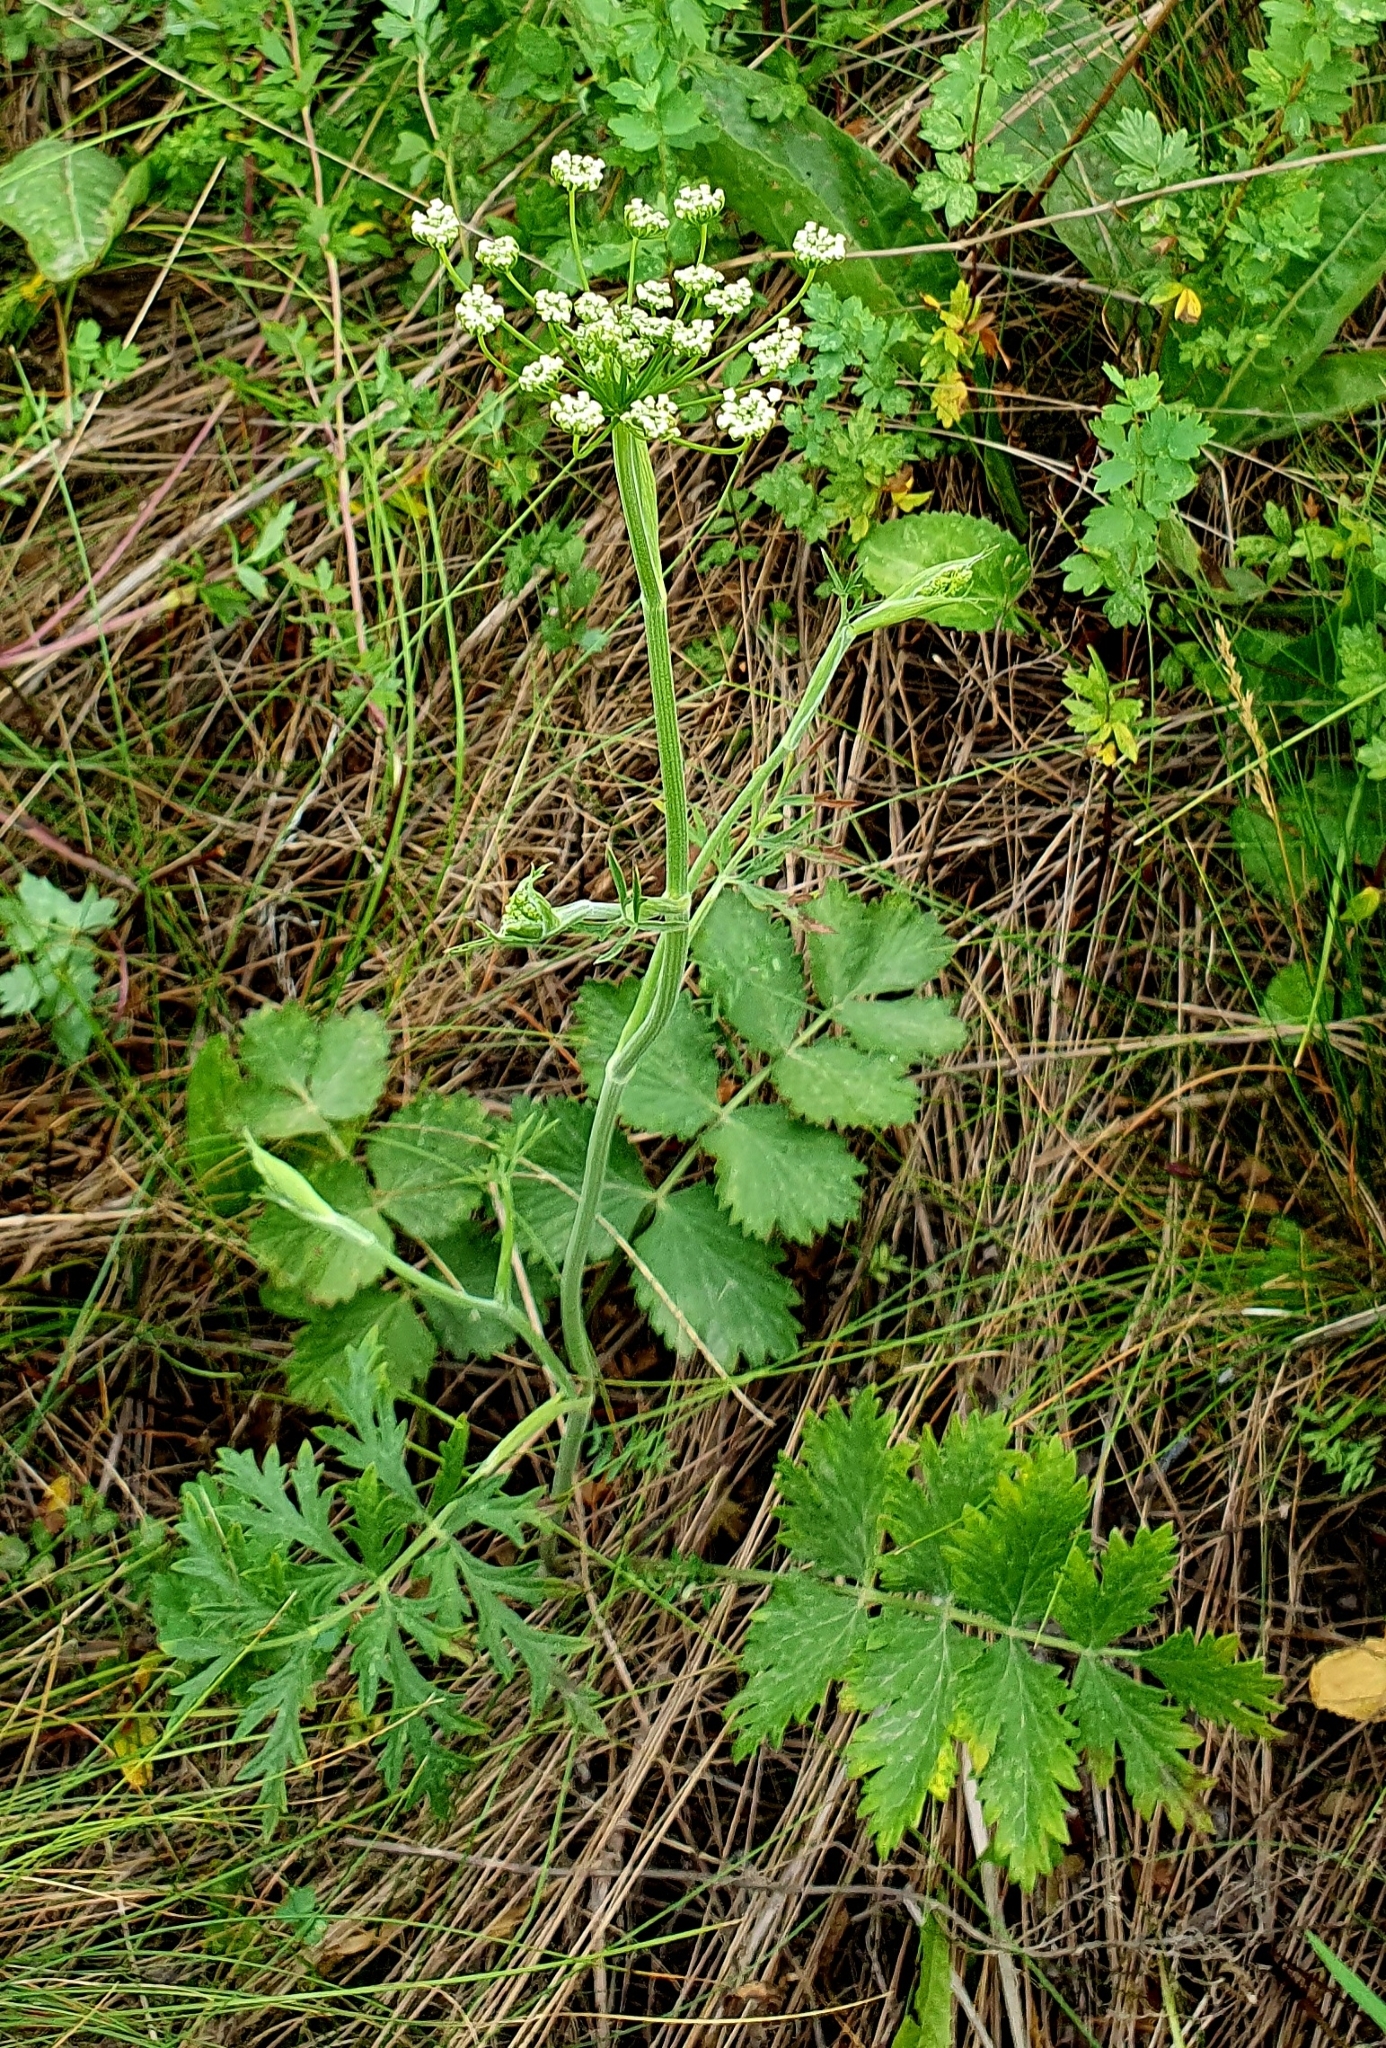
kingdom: Plantae
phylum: Tracheophyta
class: Magnoliopsida
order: Apiales
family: Apiaceae
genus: Pimpinella
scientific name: Pimpinella saxifraga
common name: Burnet-saxifrage
